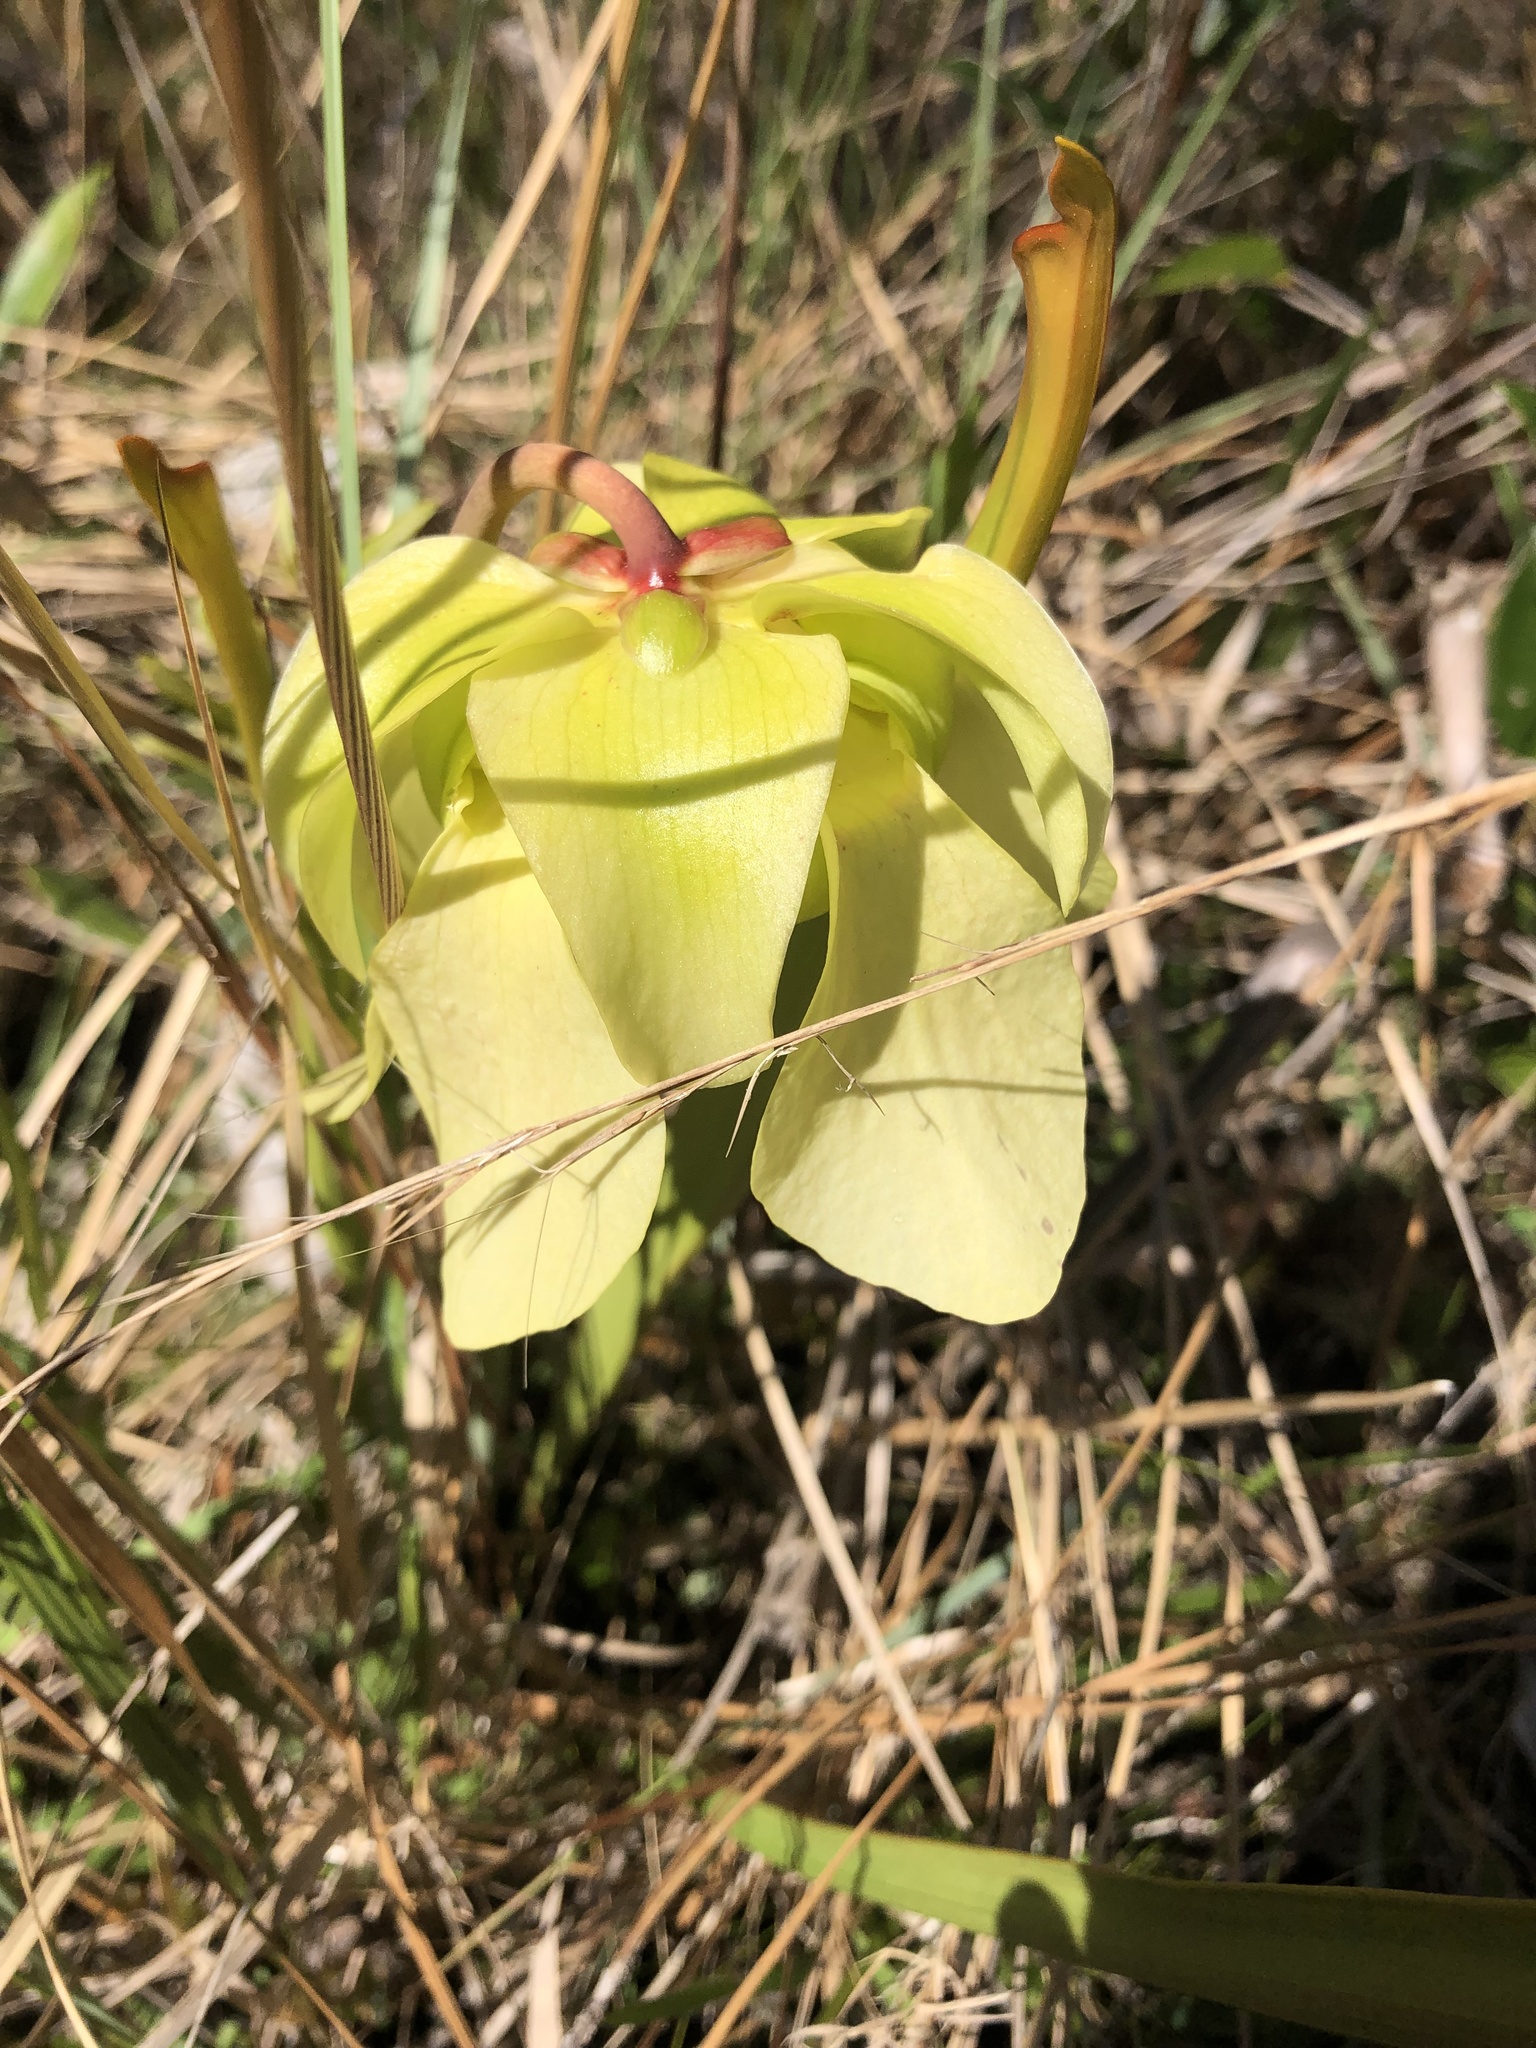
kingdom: Plantae
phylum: Tracheophyta
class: Magnoliopsida
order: Ericales
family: Sarraceniaceae
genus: Sarracenia
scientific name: Sarracenia alata
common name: Yellow trumpets
